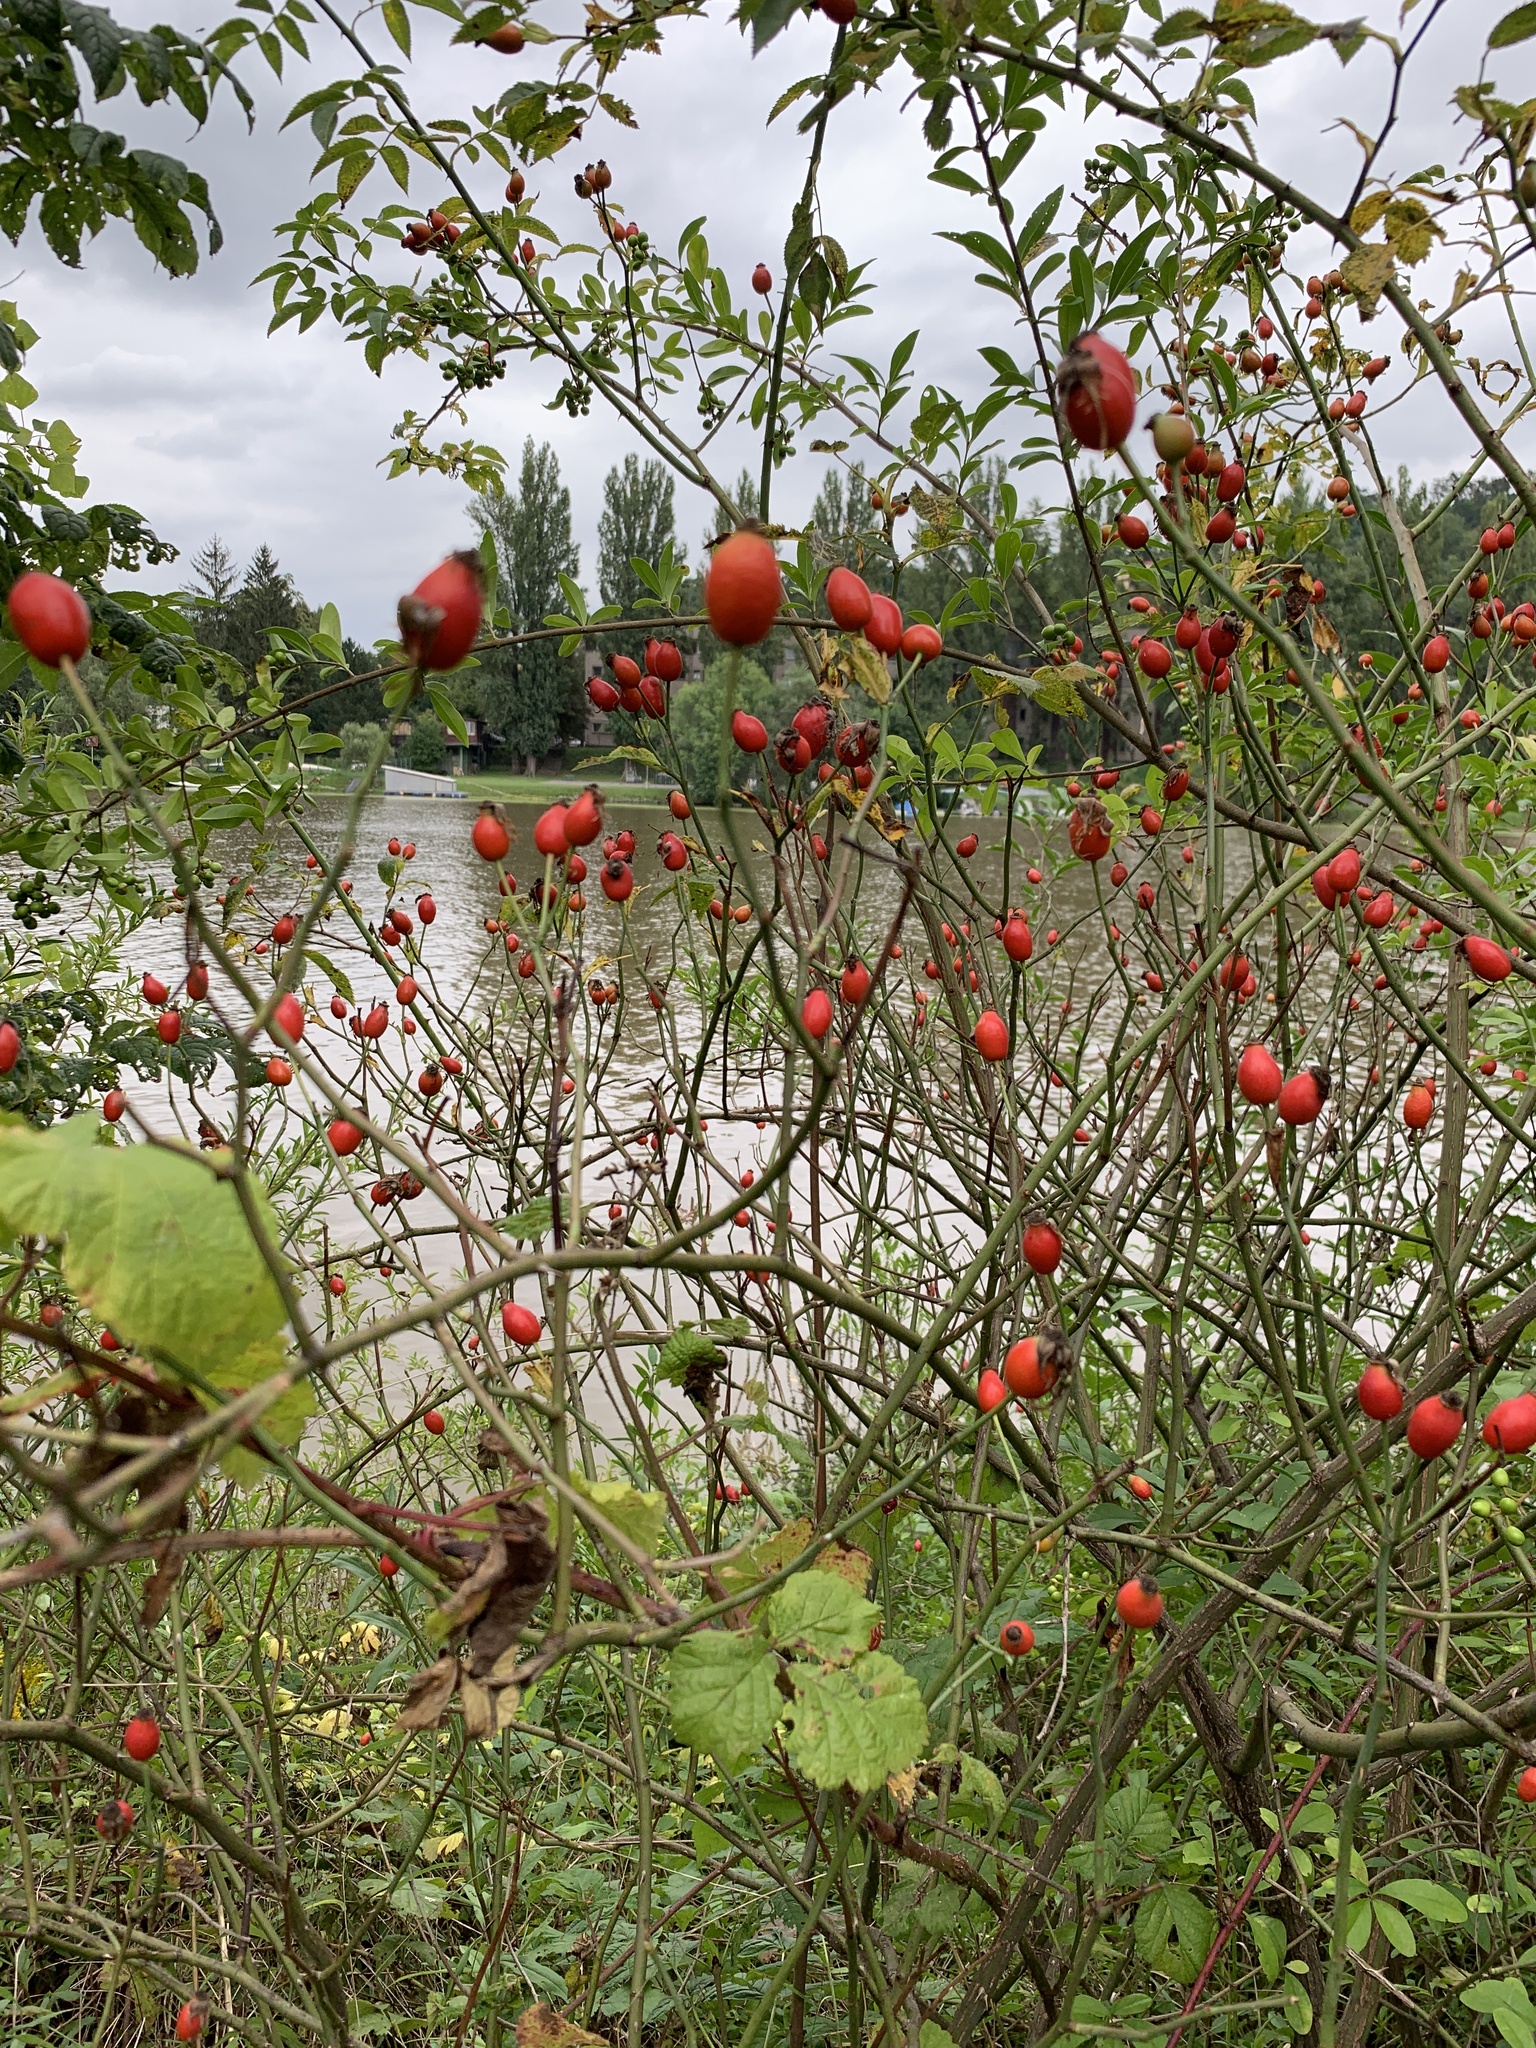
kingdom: Plantae
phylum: Tracheophyta
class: Magnoliopsida
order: Rosales
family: Rosaceae
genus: Rosa
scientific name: Rosa canina
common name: Dog rose
